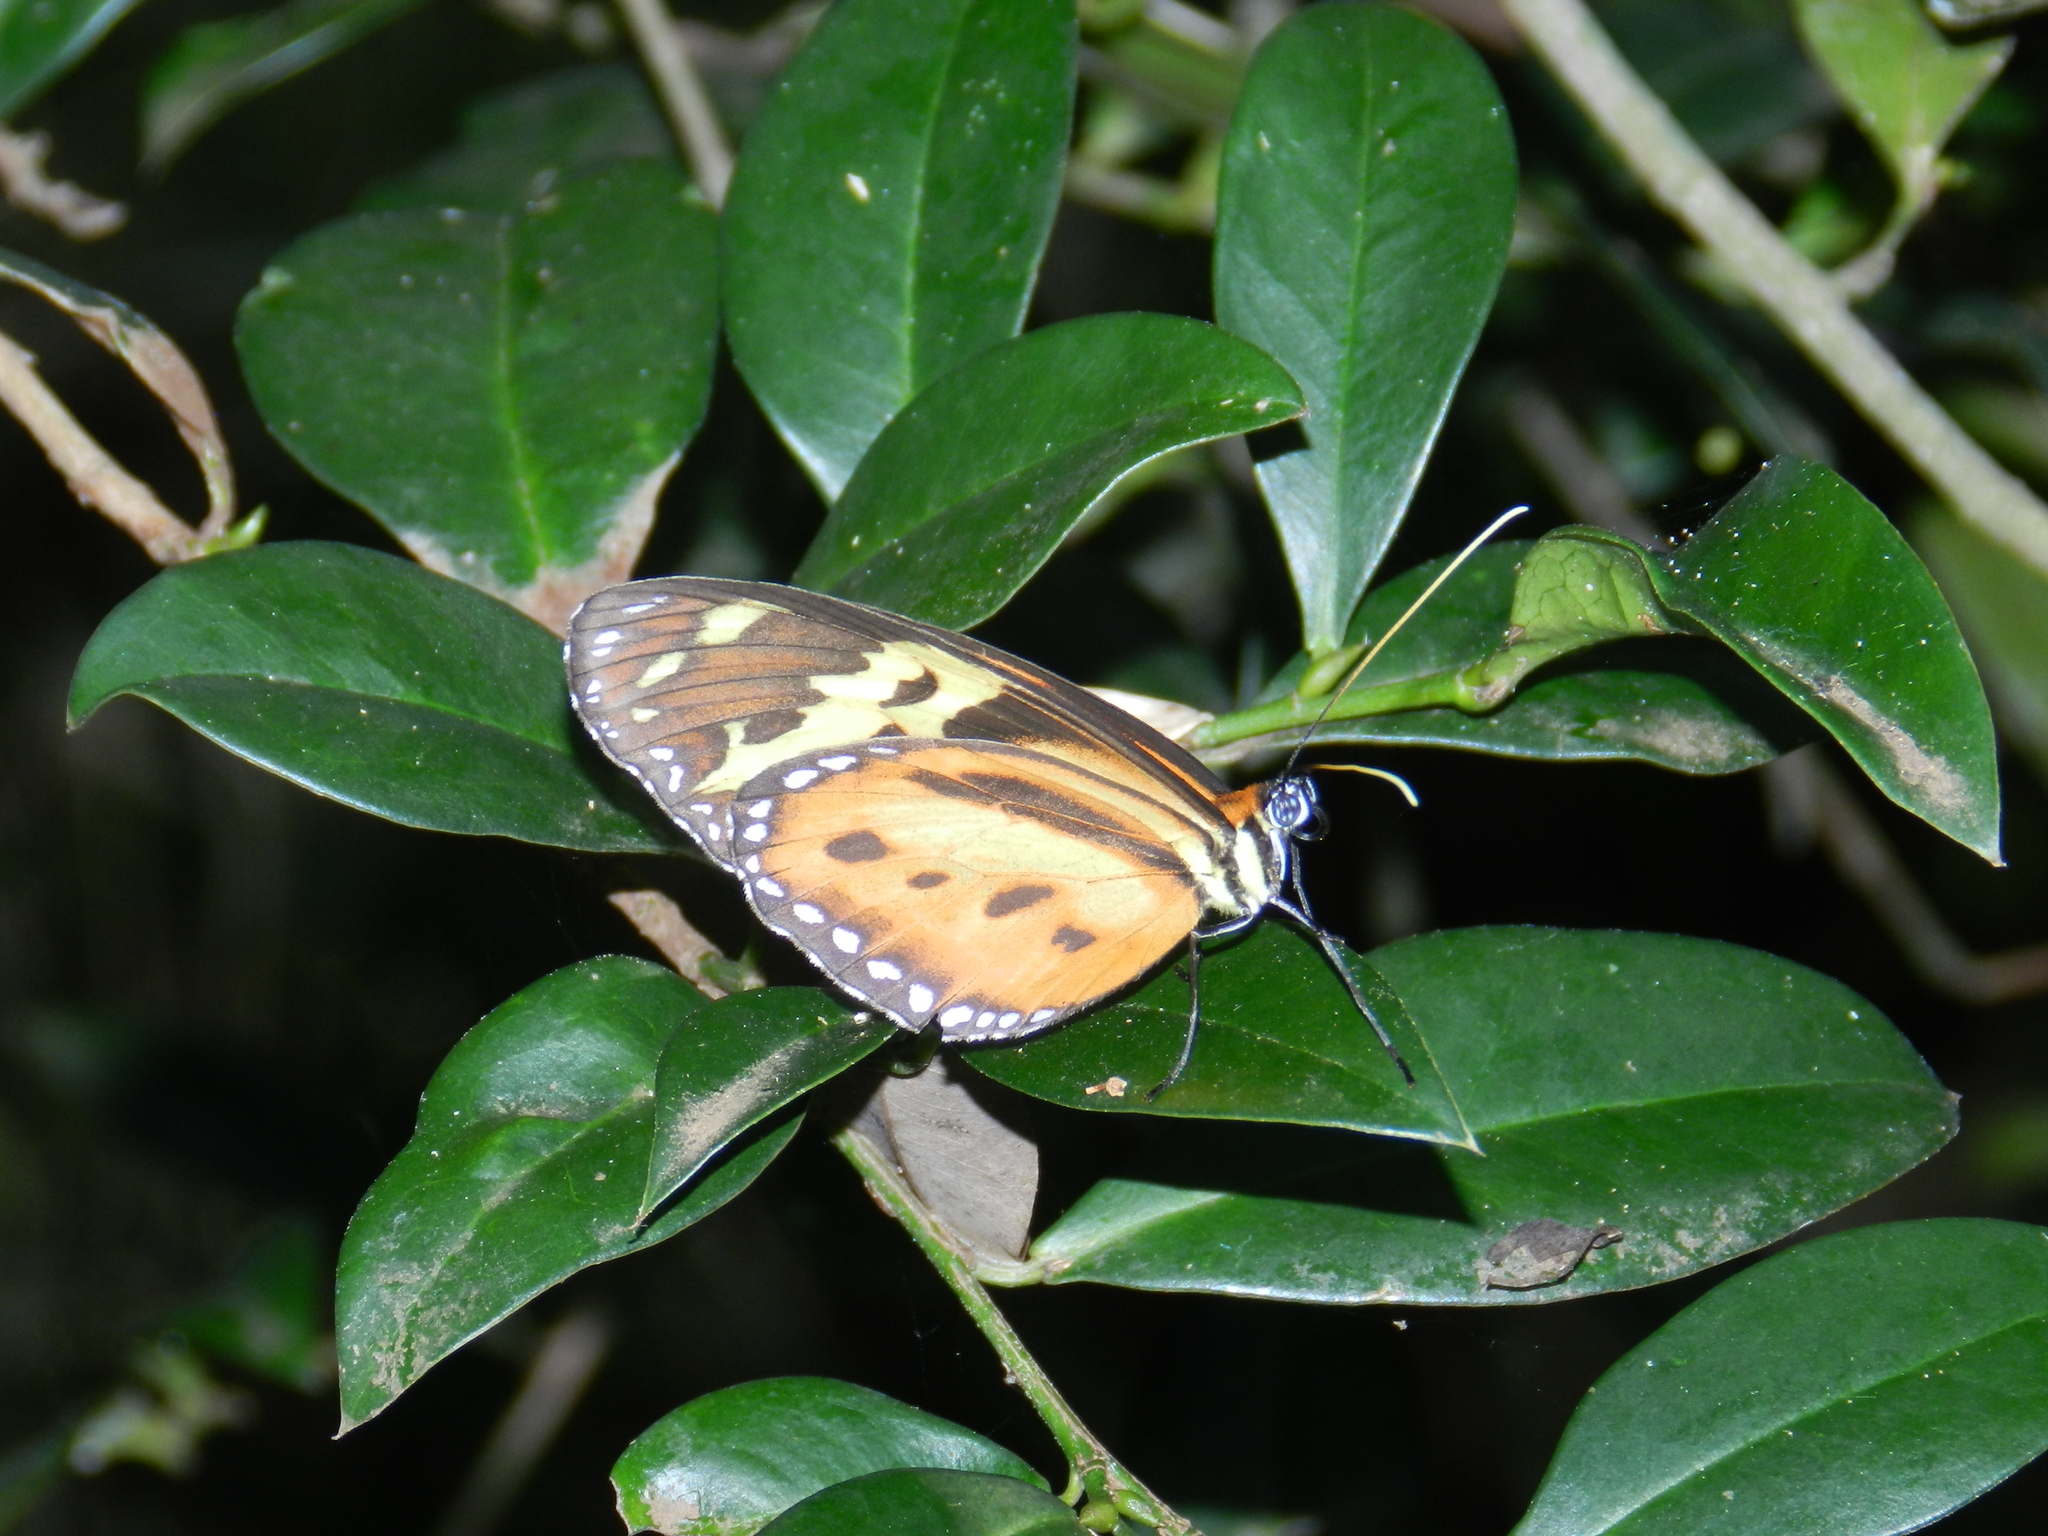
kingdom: Animalia
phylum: Arthropoda
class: Insecta
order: Lepidoptera
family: Nymphalidae
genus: Tithorea
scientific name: Tithorea harmonia
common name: Harmonia tigerwing
